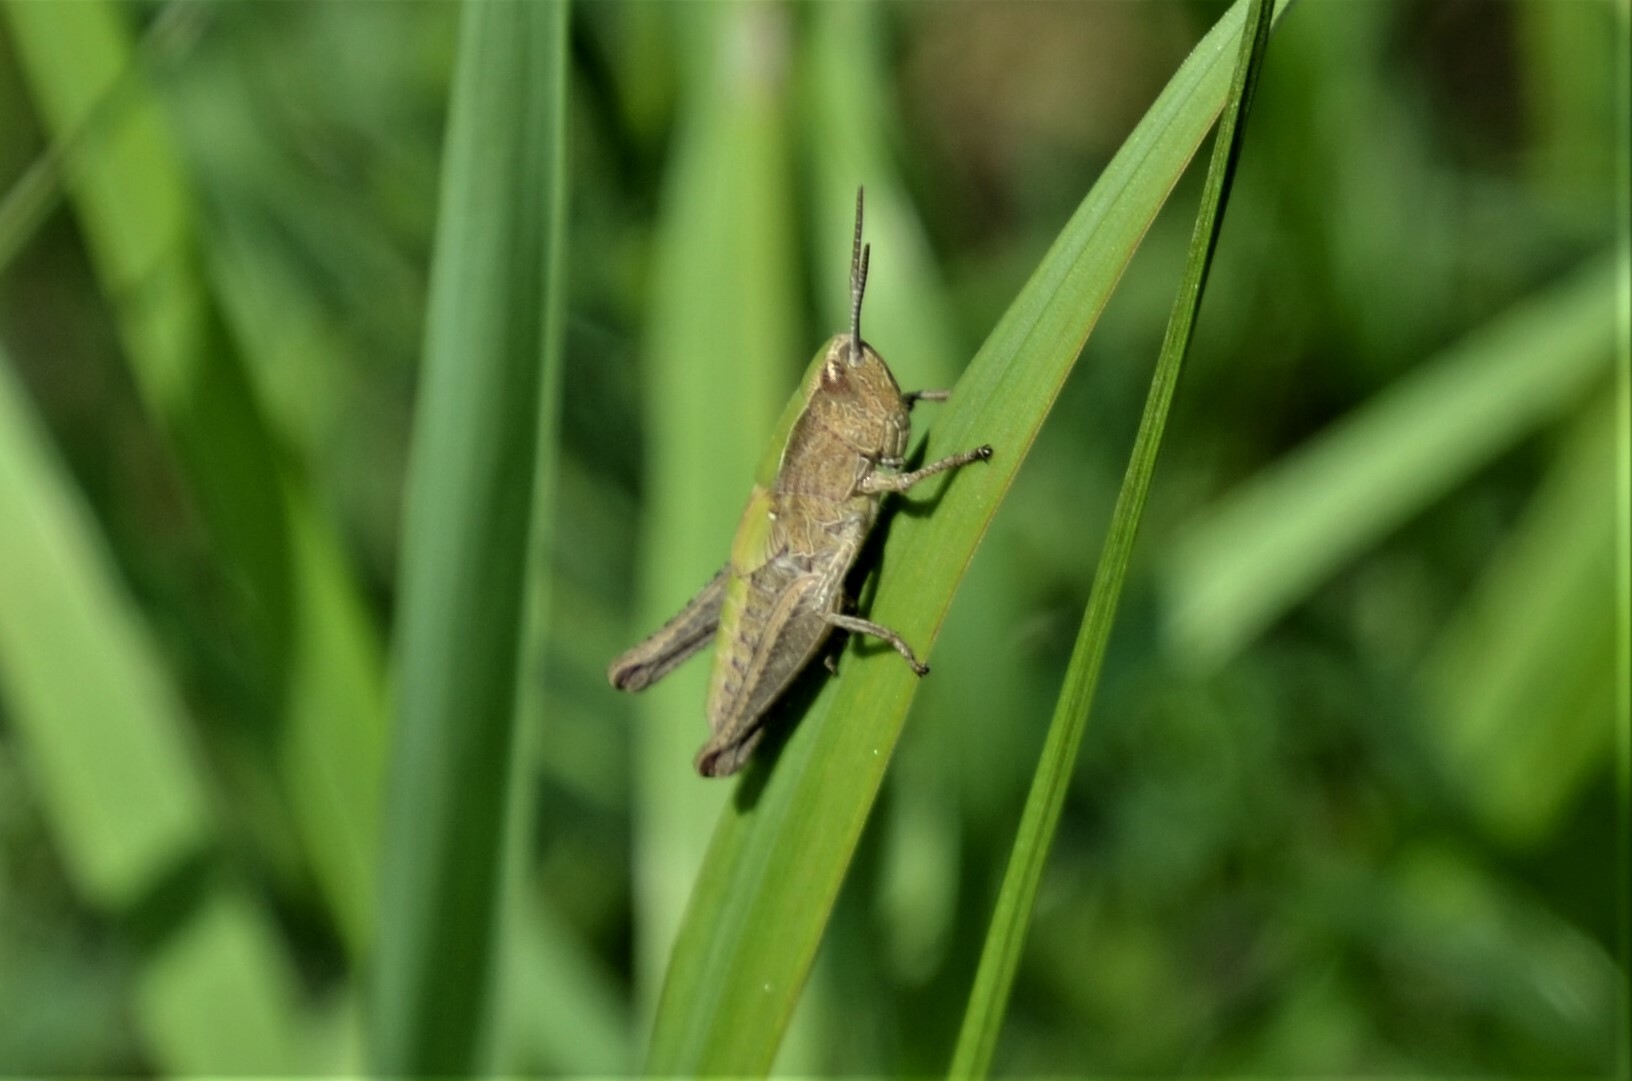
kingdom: Animalia
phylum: Arthropoda
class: Insecta
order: Orthoptera
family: Acrididae
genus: Chorthippus
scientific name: Chorthippus dorsatus
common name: Steppe grasshopper
